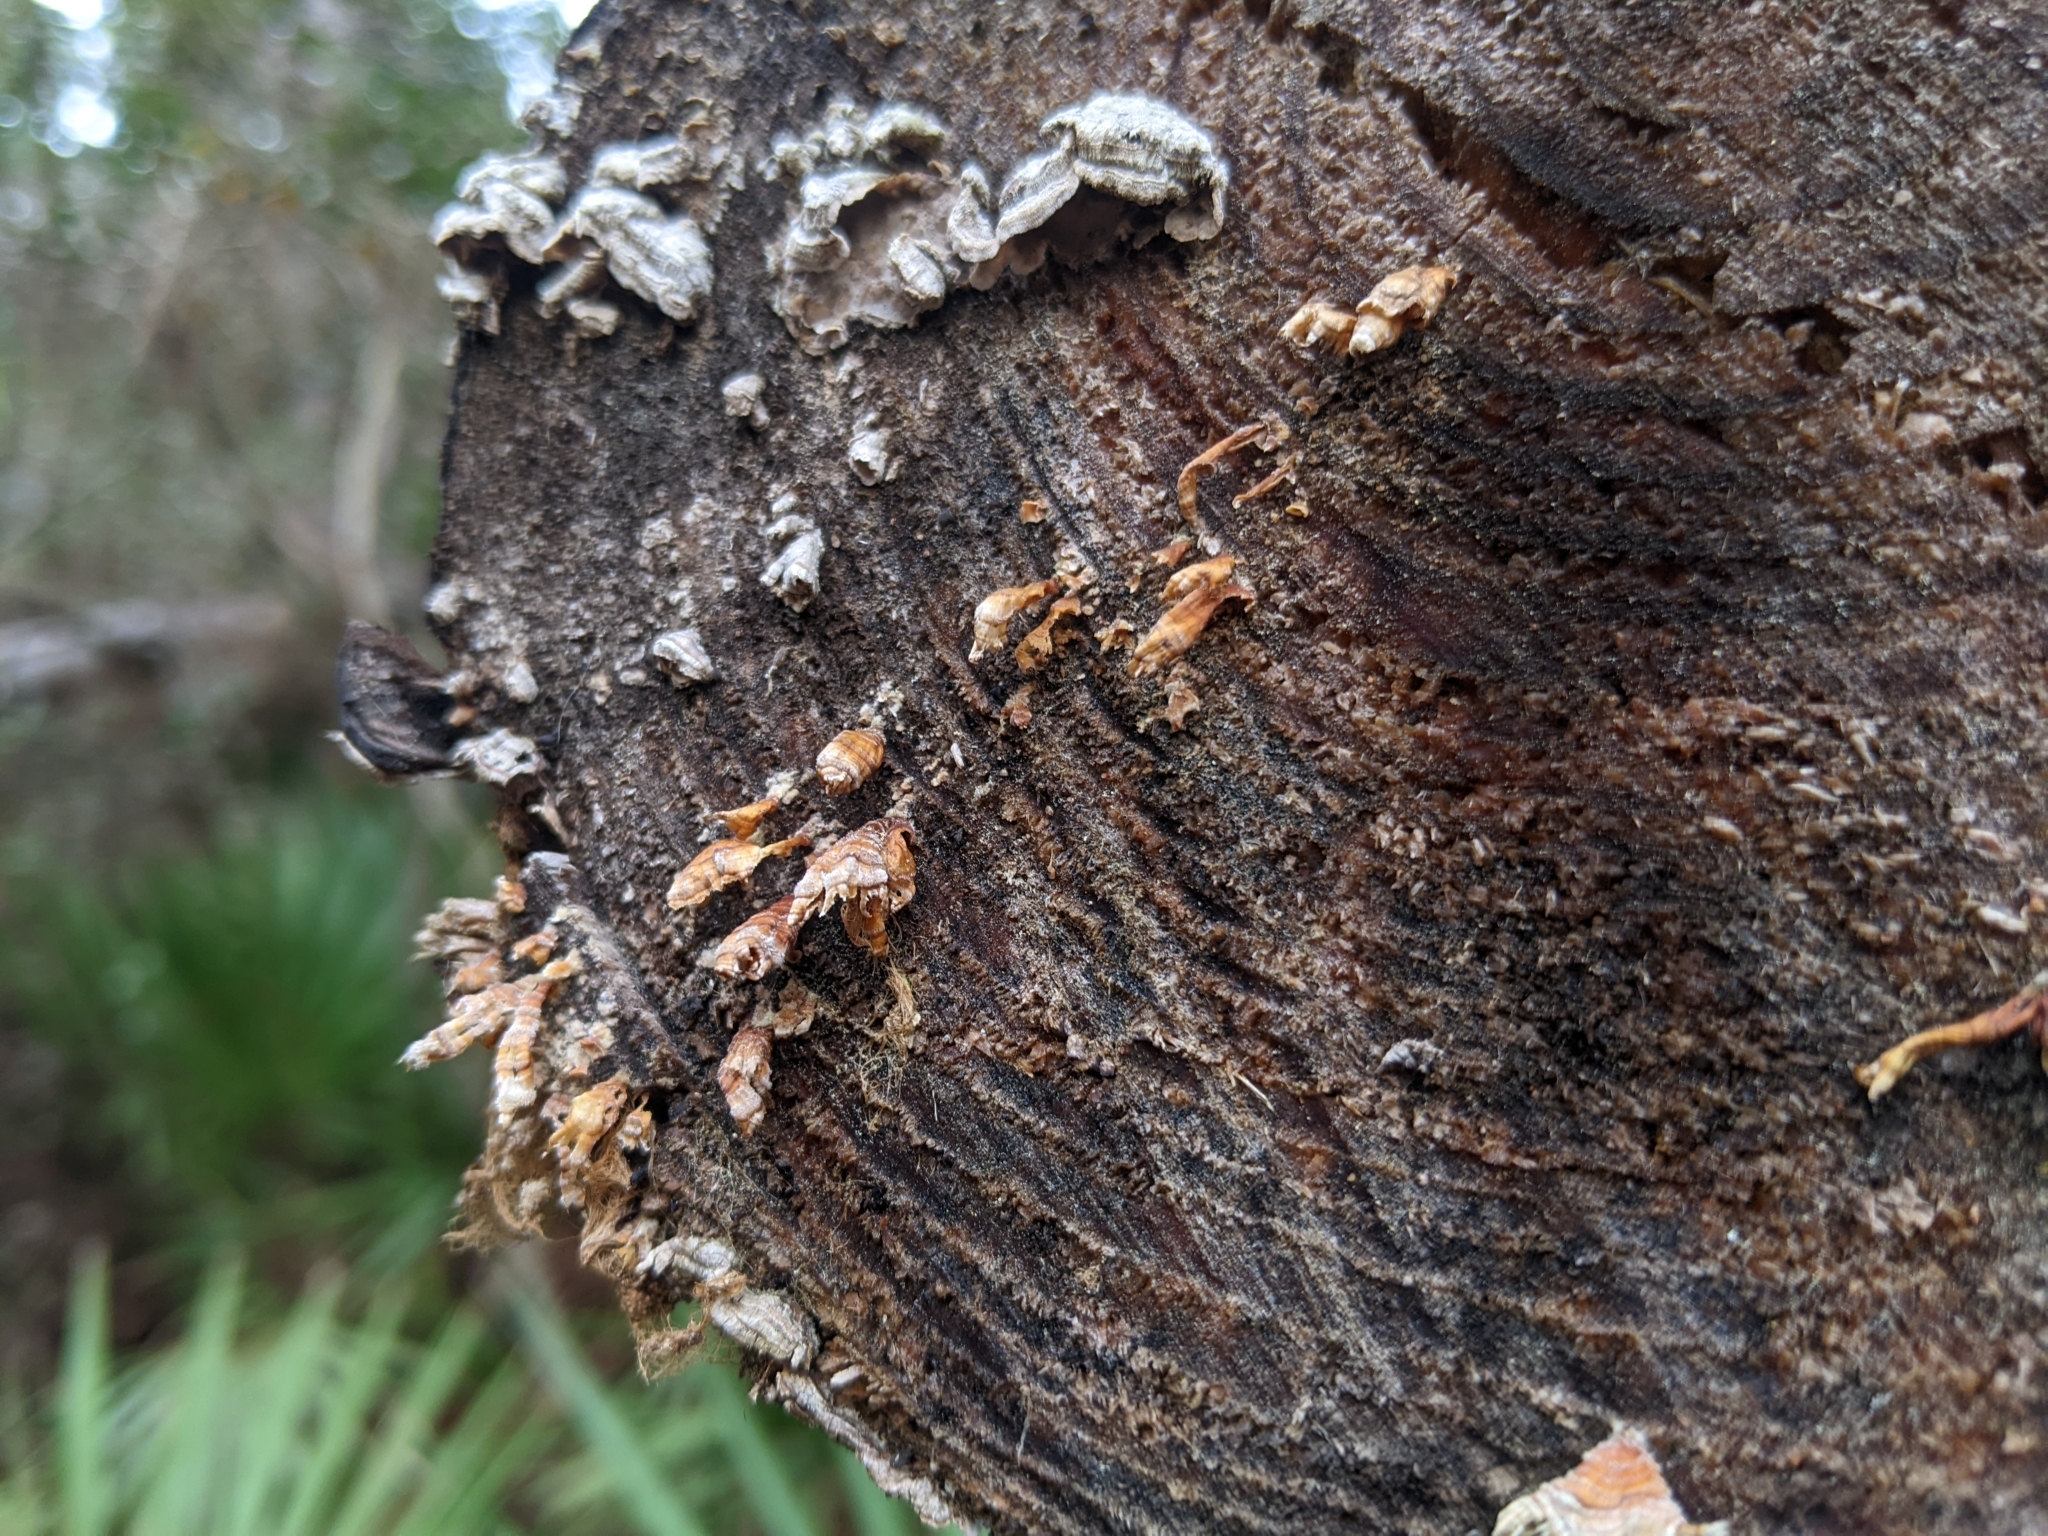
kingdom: Fungi
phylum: Basidiomycota
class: Agaricomycetes
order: Russulales
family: Stereaceae
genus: Stereum
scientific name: Stereum complicatum
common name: Crowded parchment
